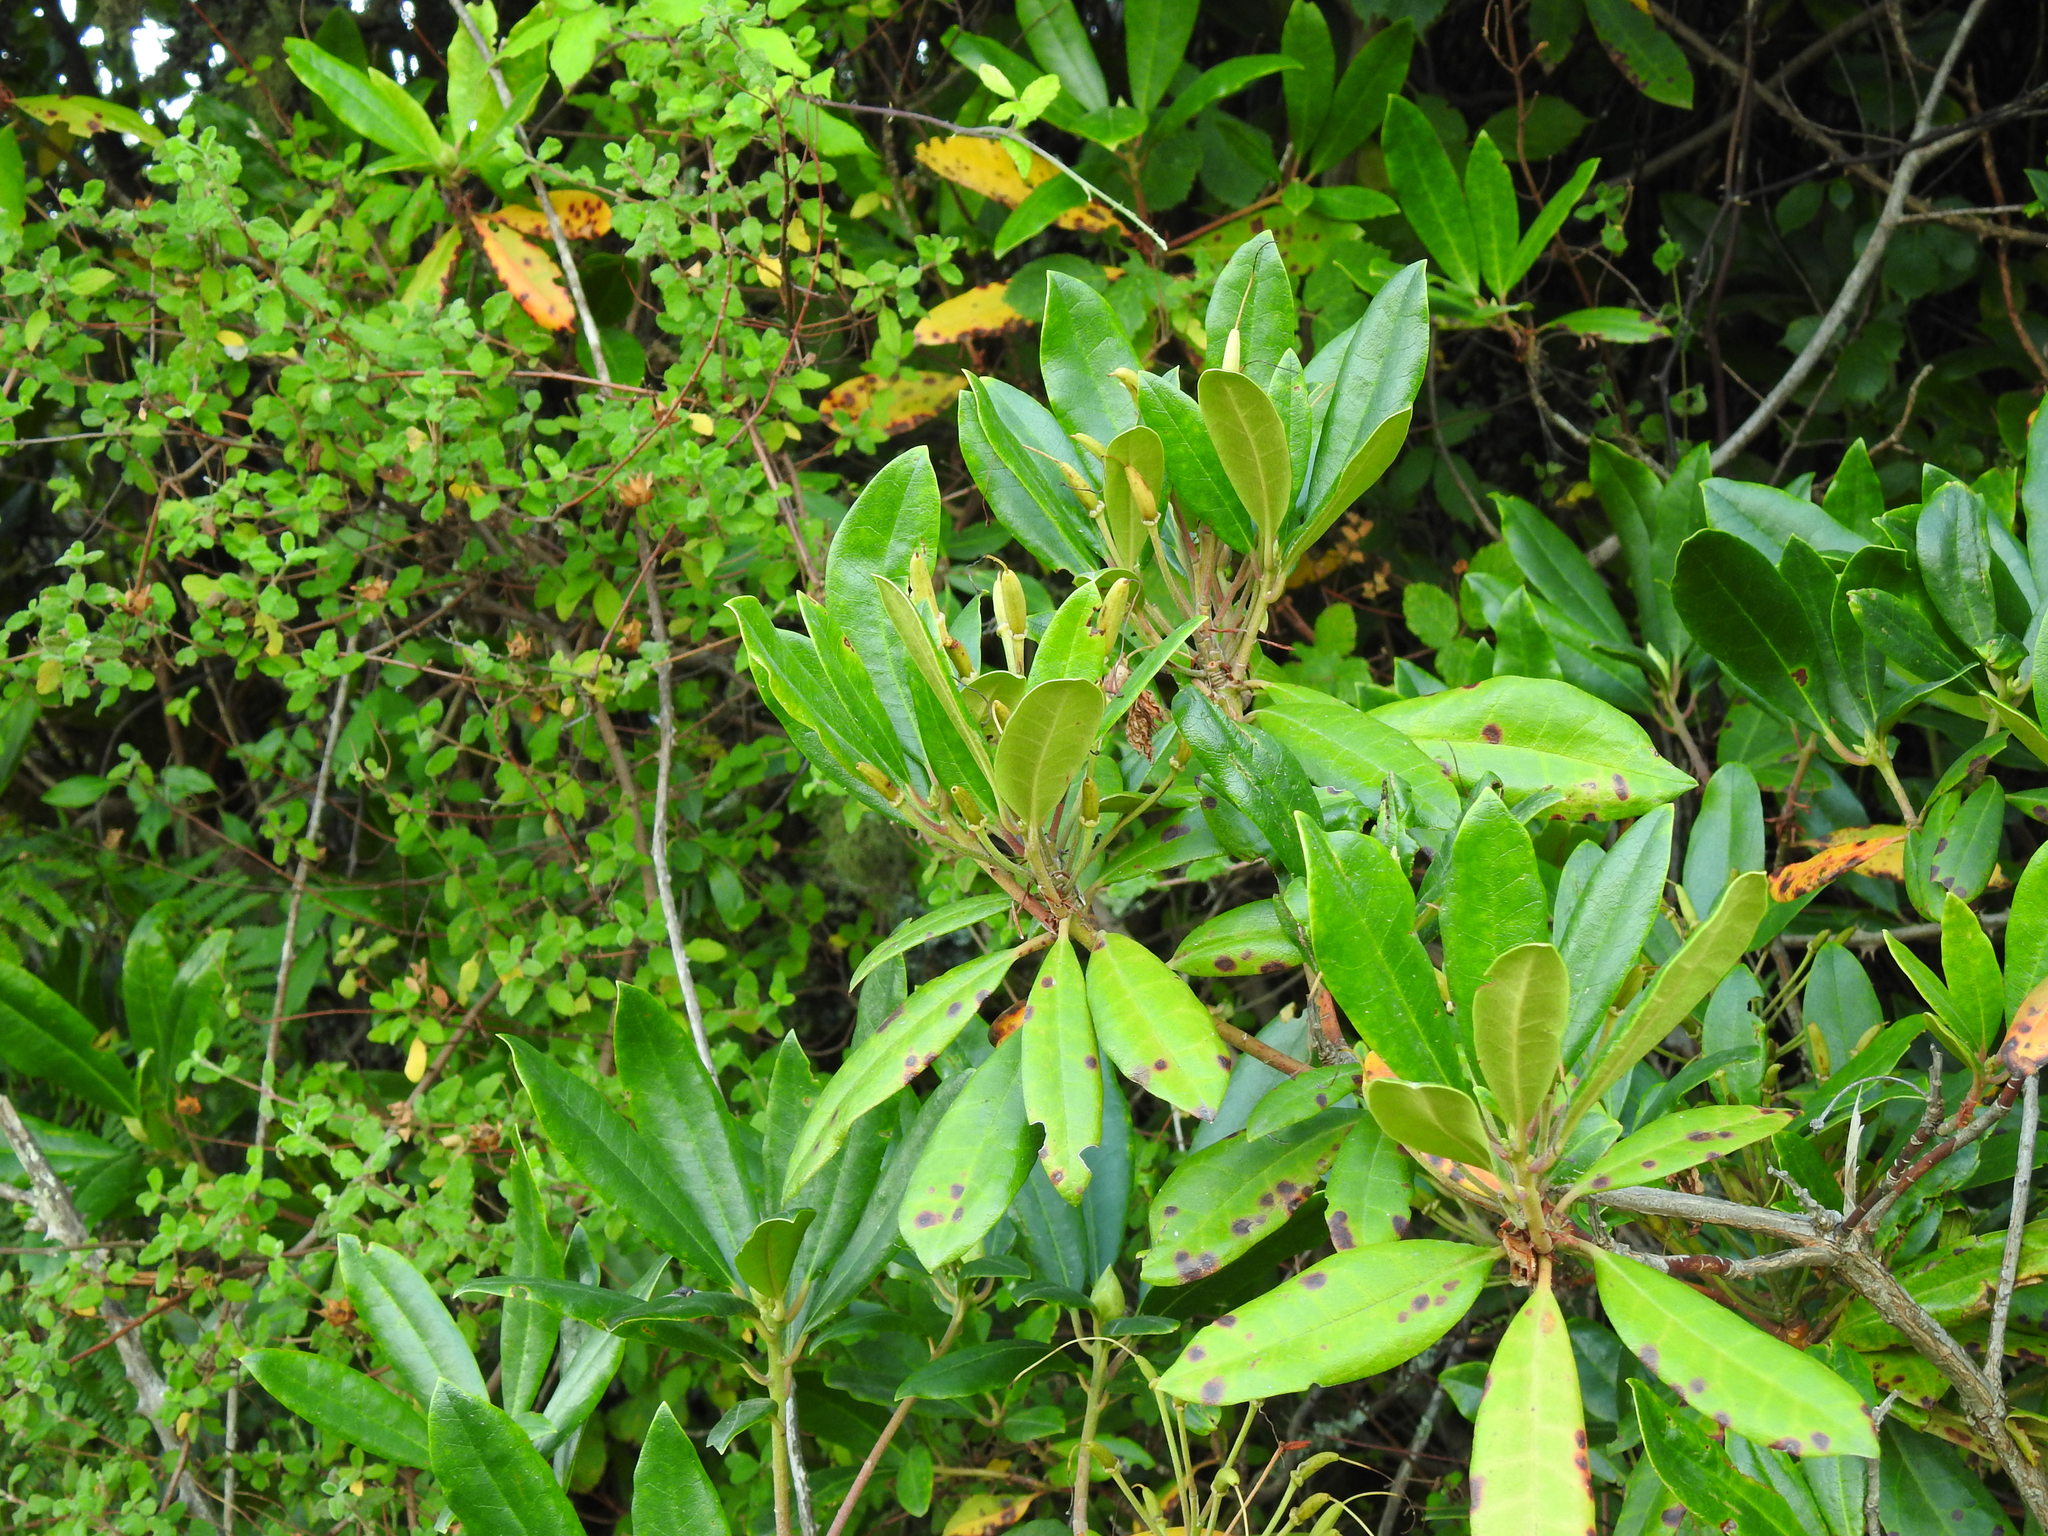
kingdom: Plantae
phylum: Tracheophyta
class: Magnoliopsida
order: Ericales
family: Ericaceae
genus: Rhododendron
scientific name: Rhododendron ponticum
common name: Rhododendron
